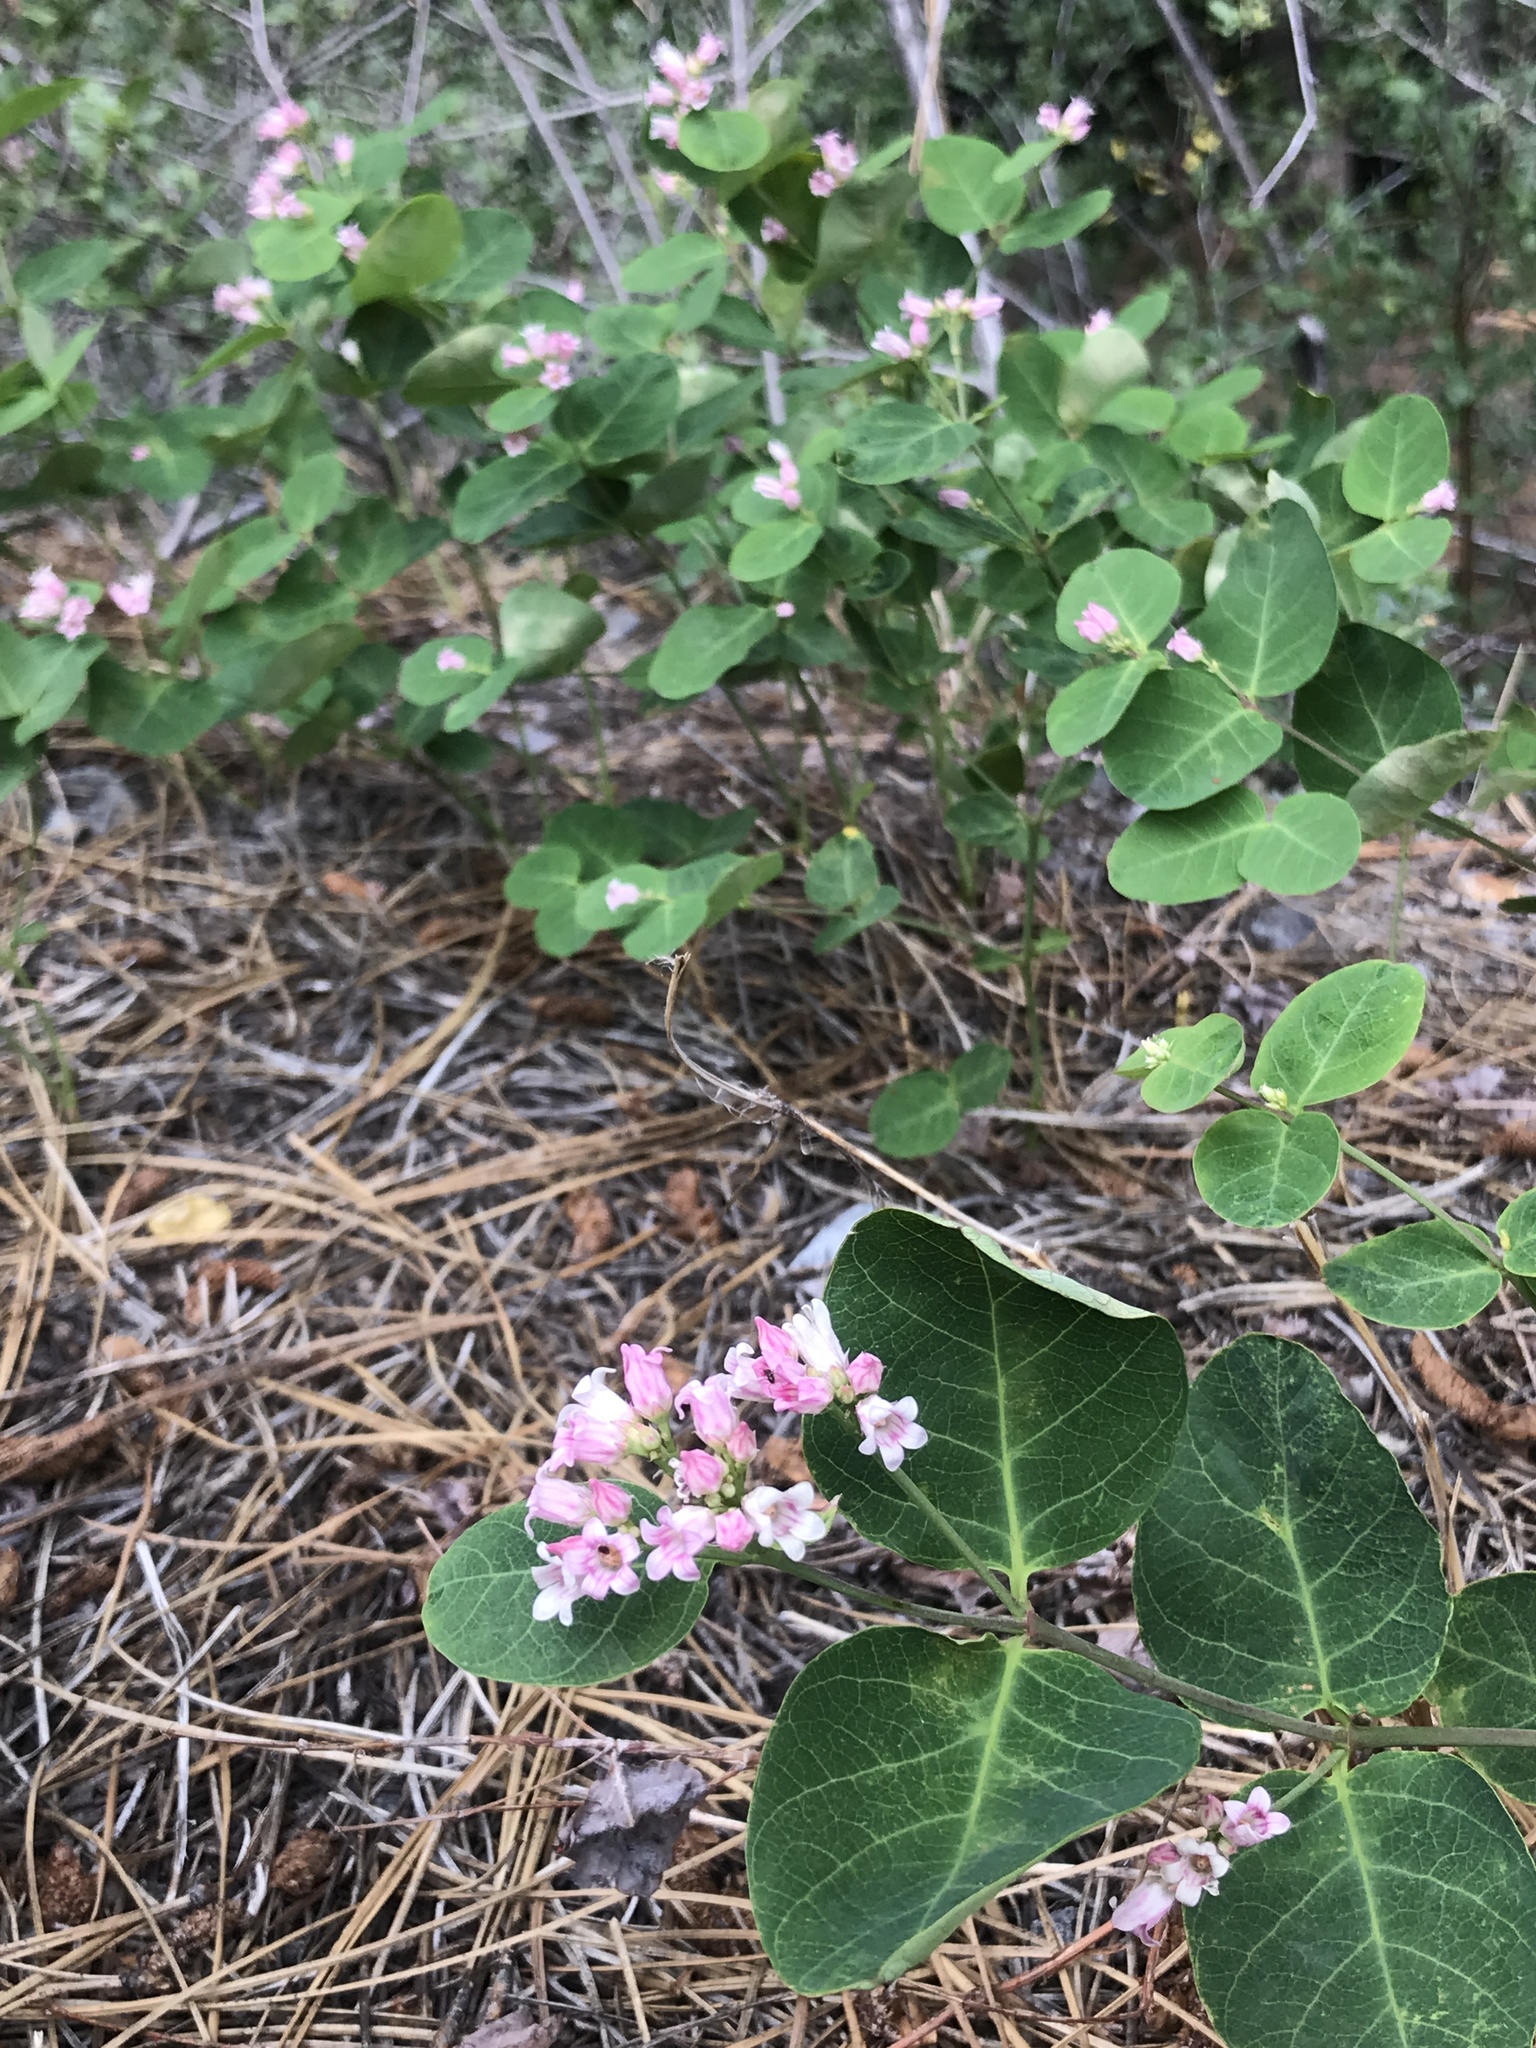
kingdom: Plantae
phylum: Tracheophyta
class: Magnoliopsida
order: Gentianales
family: Apocynaceae
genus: Apocynum
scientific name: Apocynum androsaemifolium
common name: Spreading dogbane
